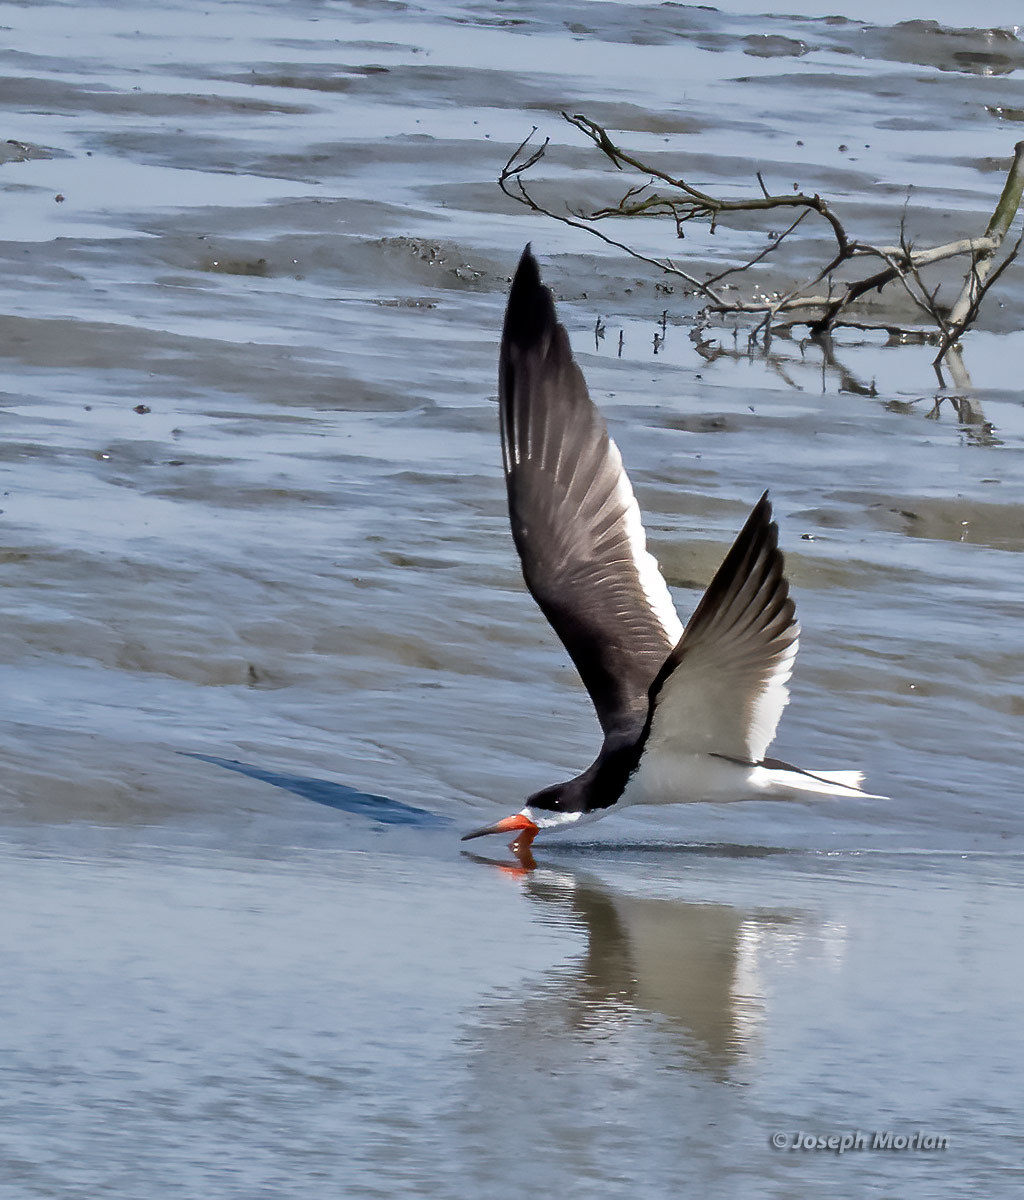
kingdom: Animalia
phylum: Chordata
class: Aves
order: Charadriiformes
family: Laridae
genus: Rynchops
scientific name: Rynchops niger
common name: Black skimmer
